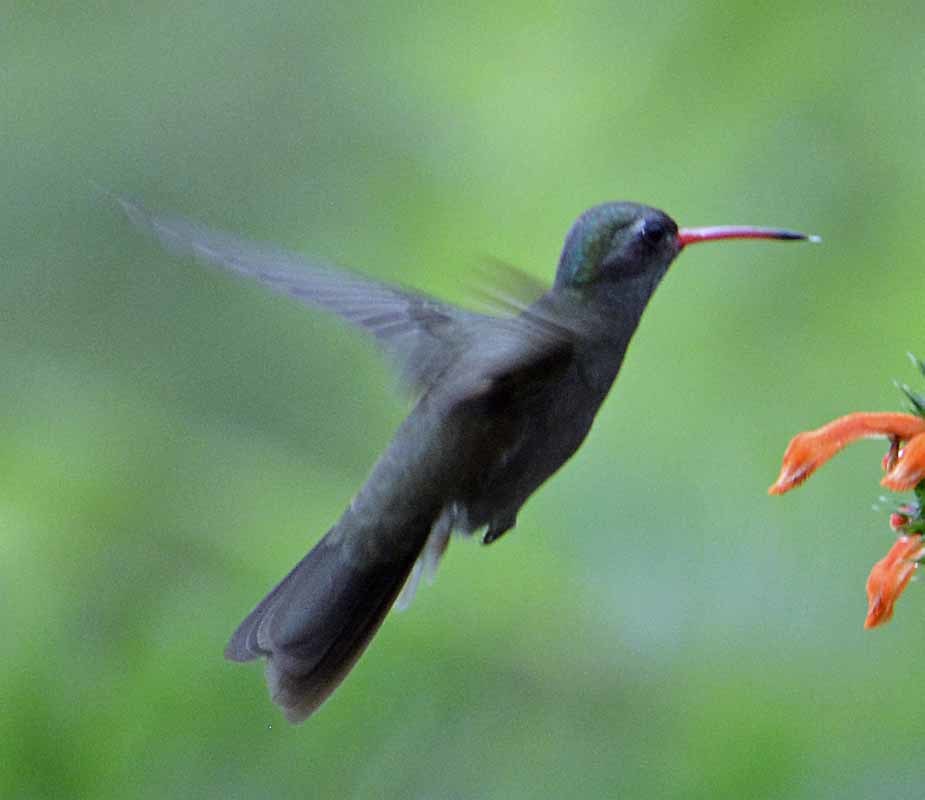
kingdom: Animalia
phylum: Chordata
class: Aves
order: Apodiformes
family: Trochilidae
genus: Cynanthus
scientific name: Cynanthus latirostris
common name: Broad-billed hummingbird
